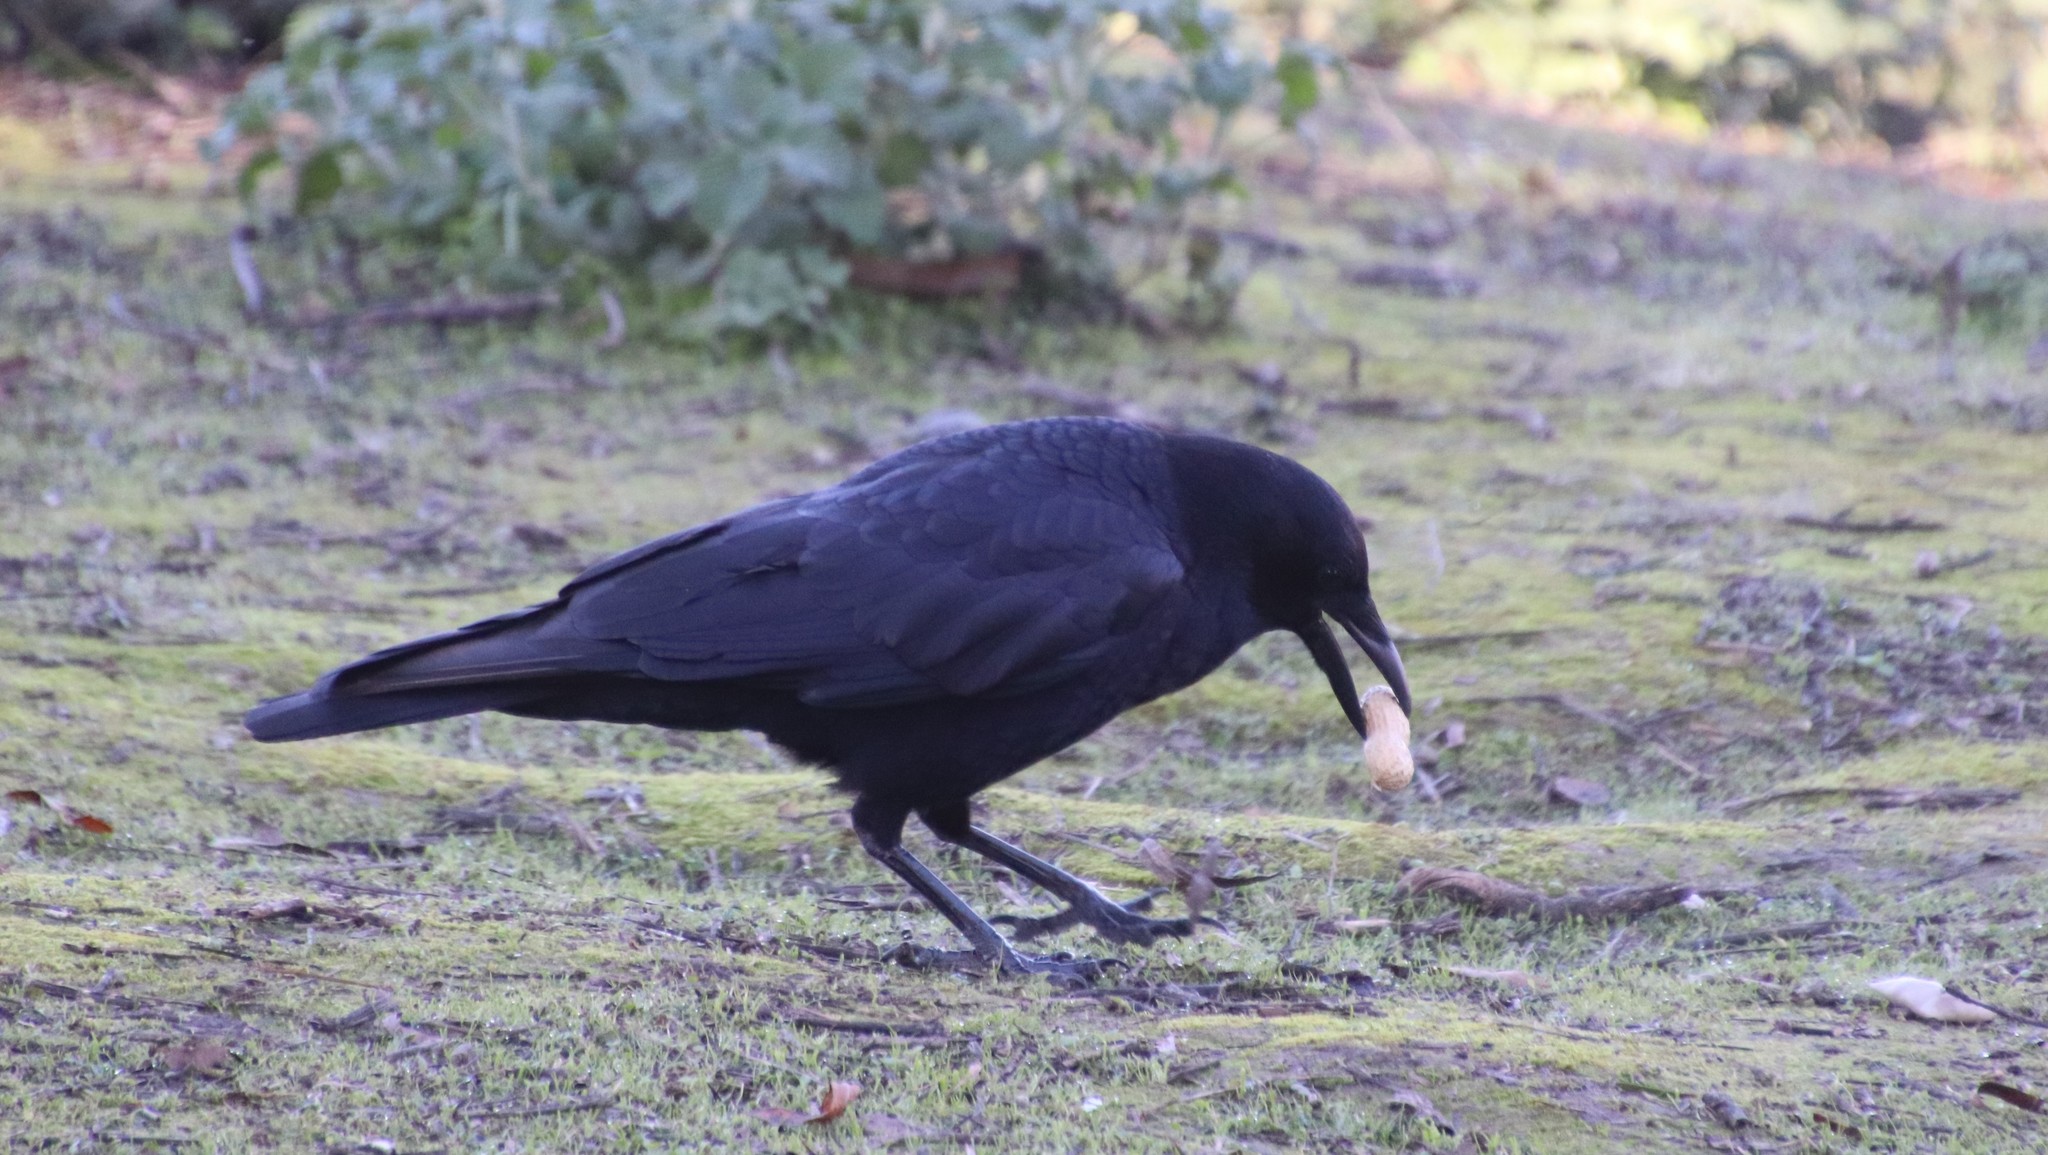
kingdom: Animalia
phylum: Chordata
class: Aves
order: Passeriformes
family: Corvidae
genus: Corvus
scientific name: Corvus brachyrhynchos
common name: American crow
